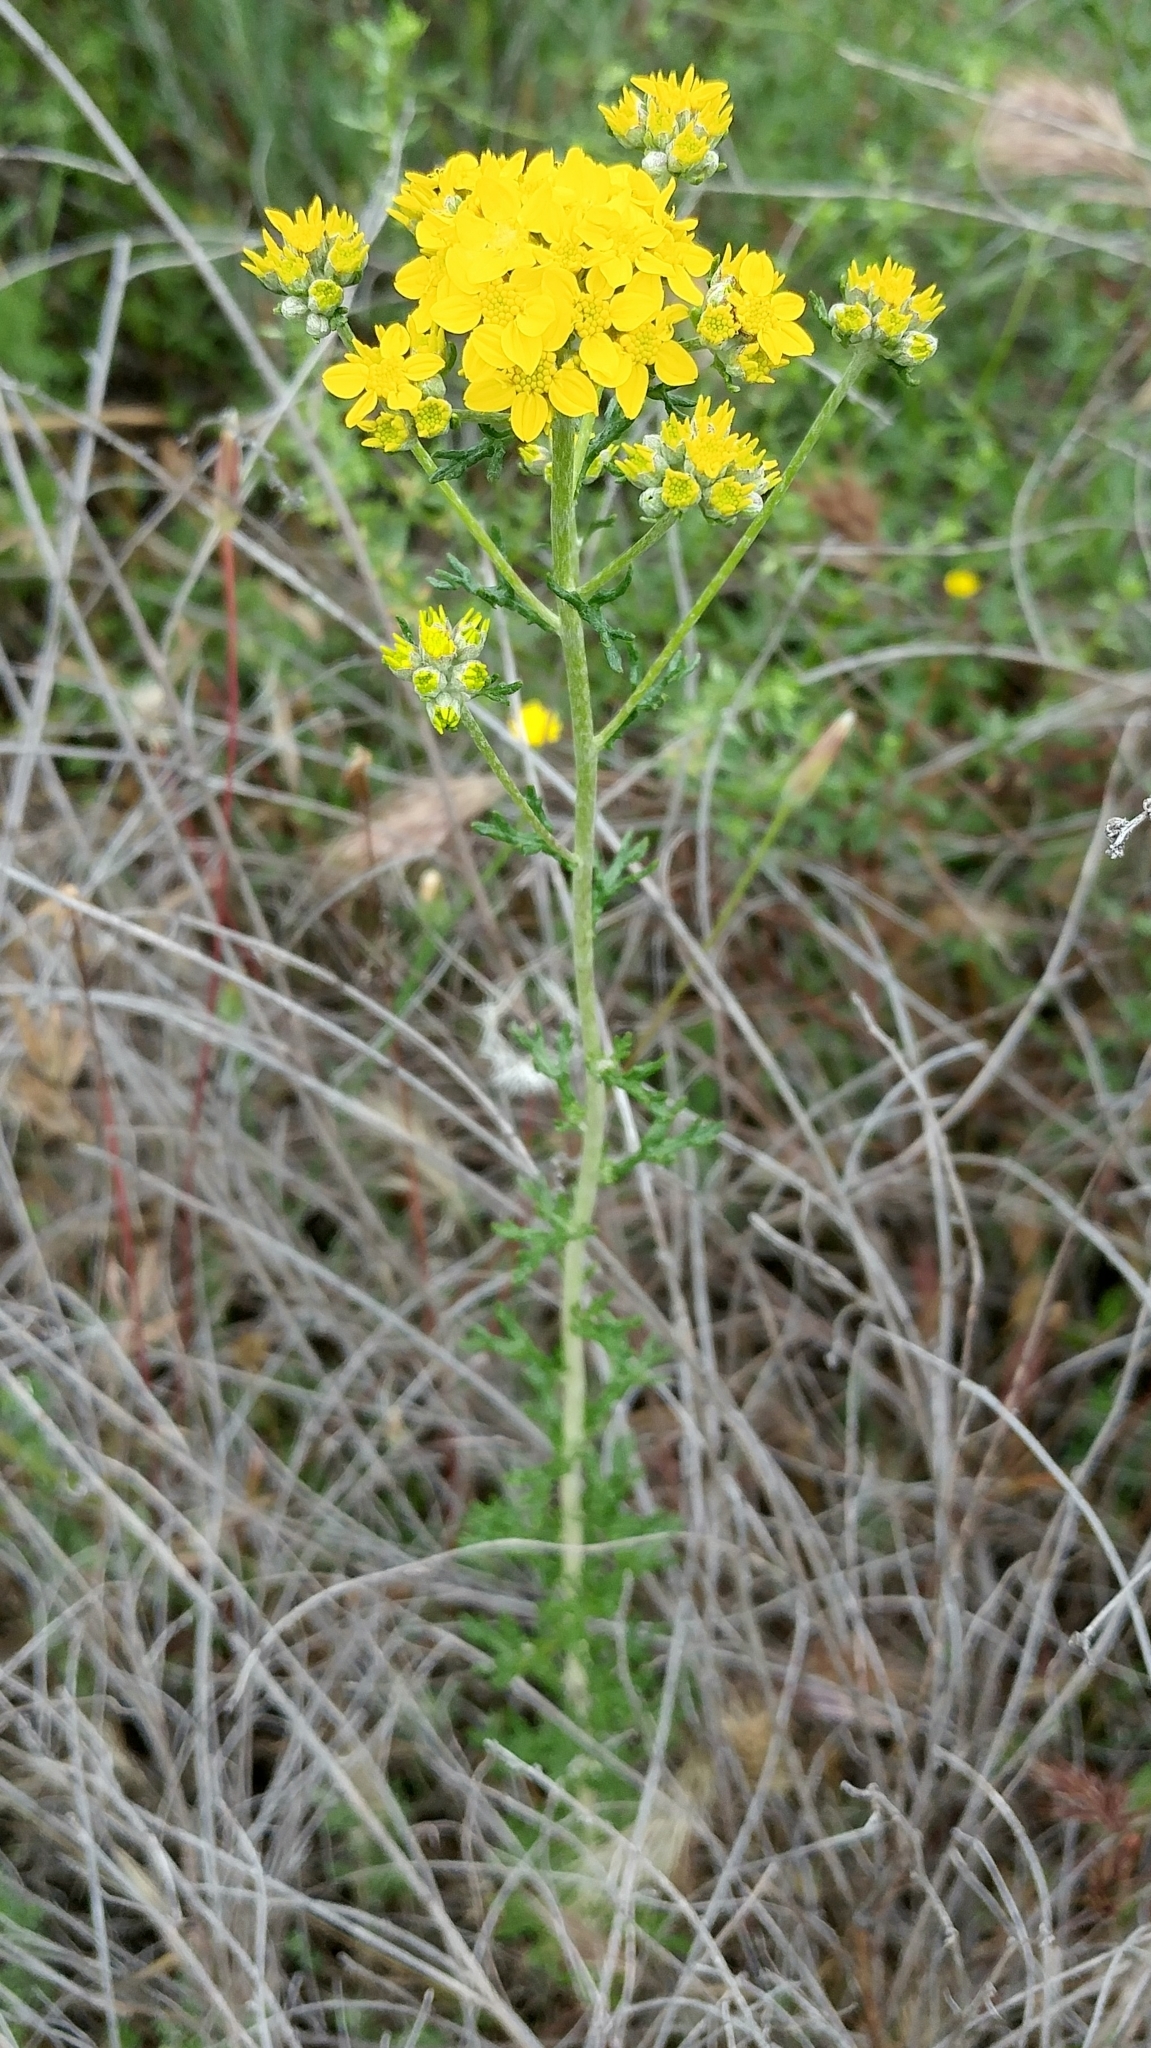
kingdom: Plantae
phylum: Tracheophyta
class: Magnoliopsida
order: Asterales
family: Asteraceae
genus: Eriophyllum
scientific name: Eriophyllum confertiflorum
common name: Golden-yarrow
